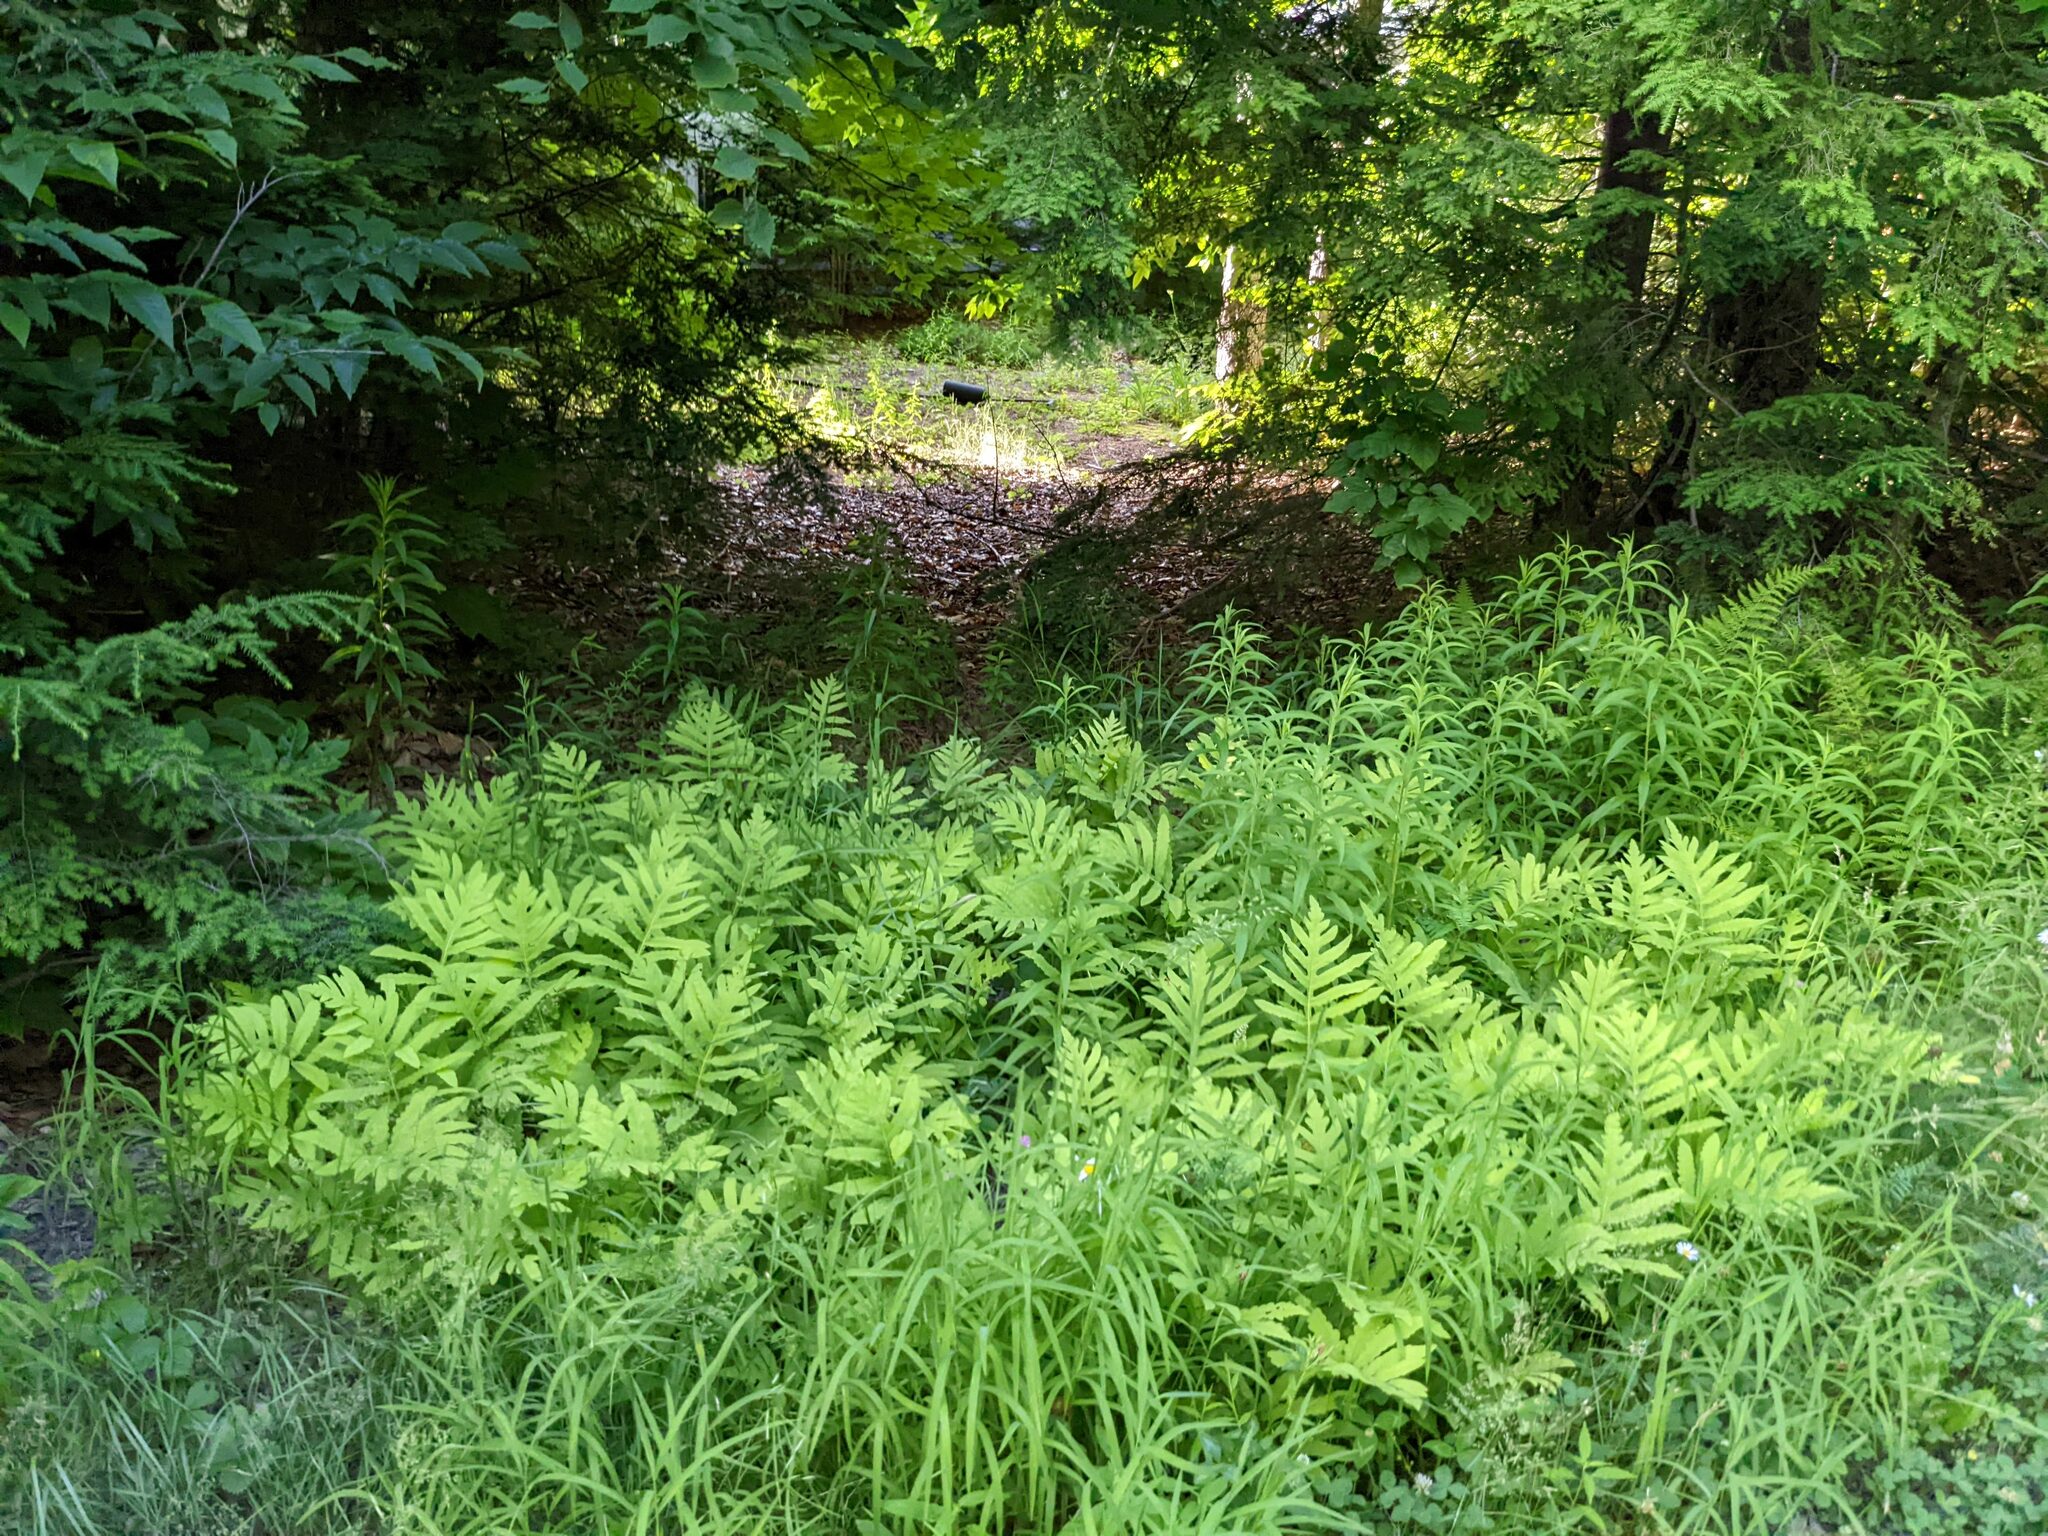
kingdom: Plantae
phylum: Tracheophyta
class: Polypodiopsida
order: Polypodiales
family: Onocleaceae
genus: Onoclea
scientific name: Onoclea sensibilis
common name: Sensitive fern
